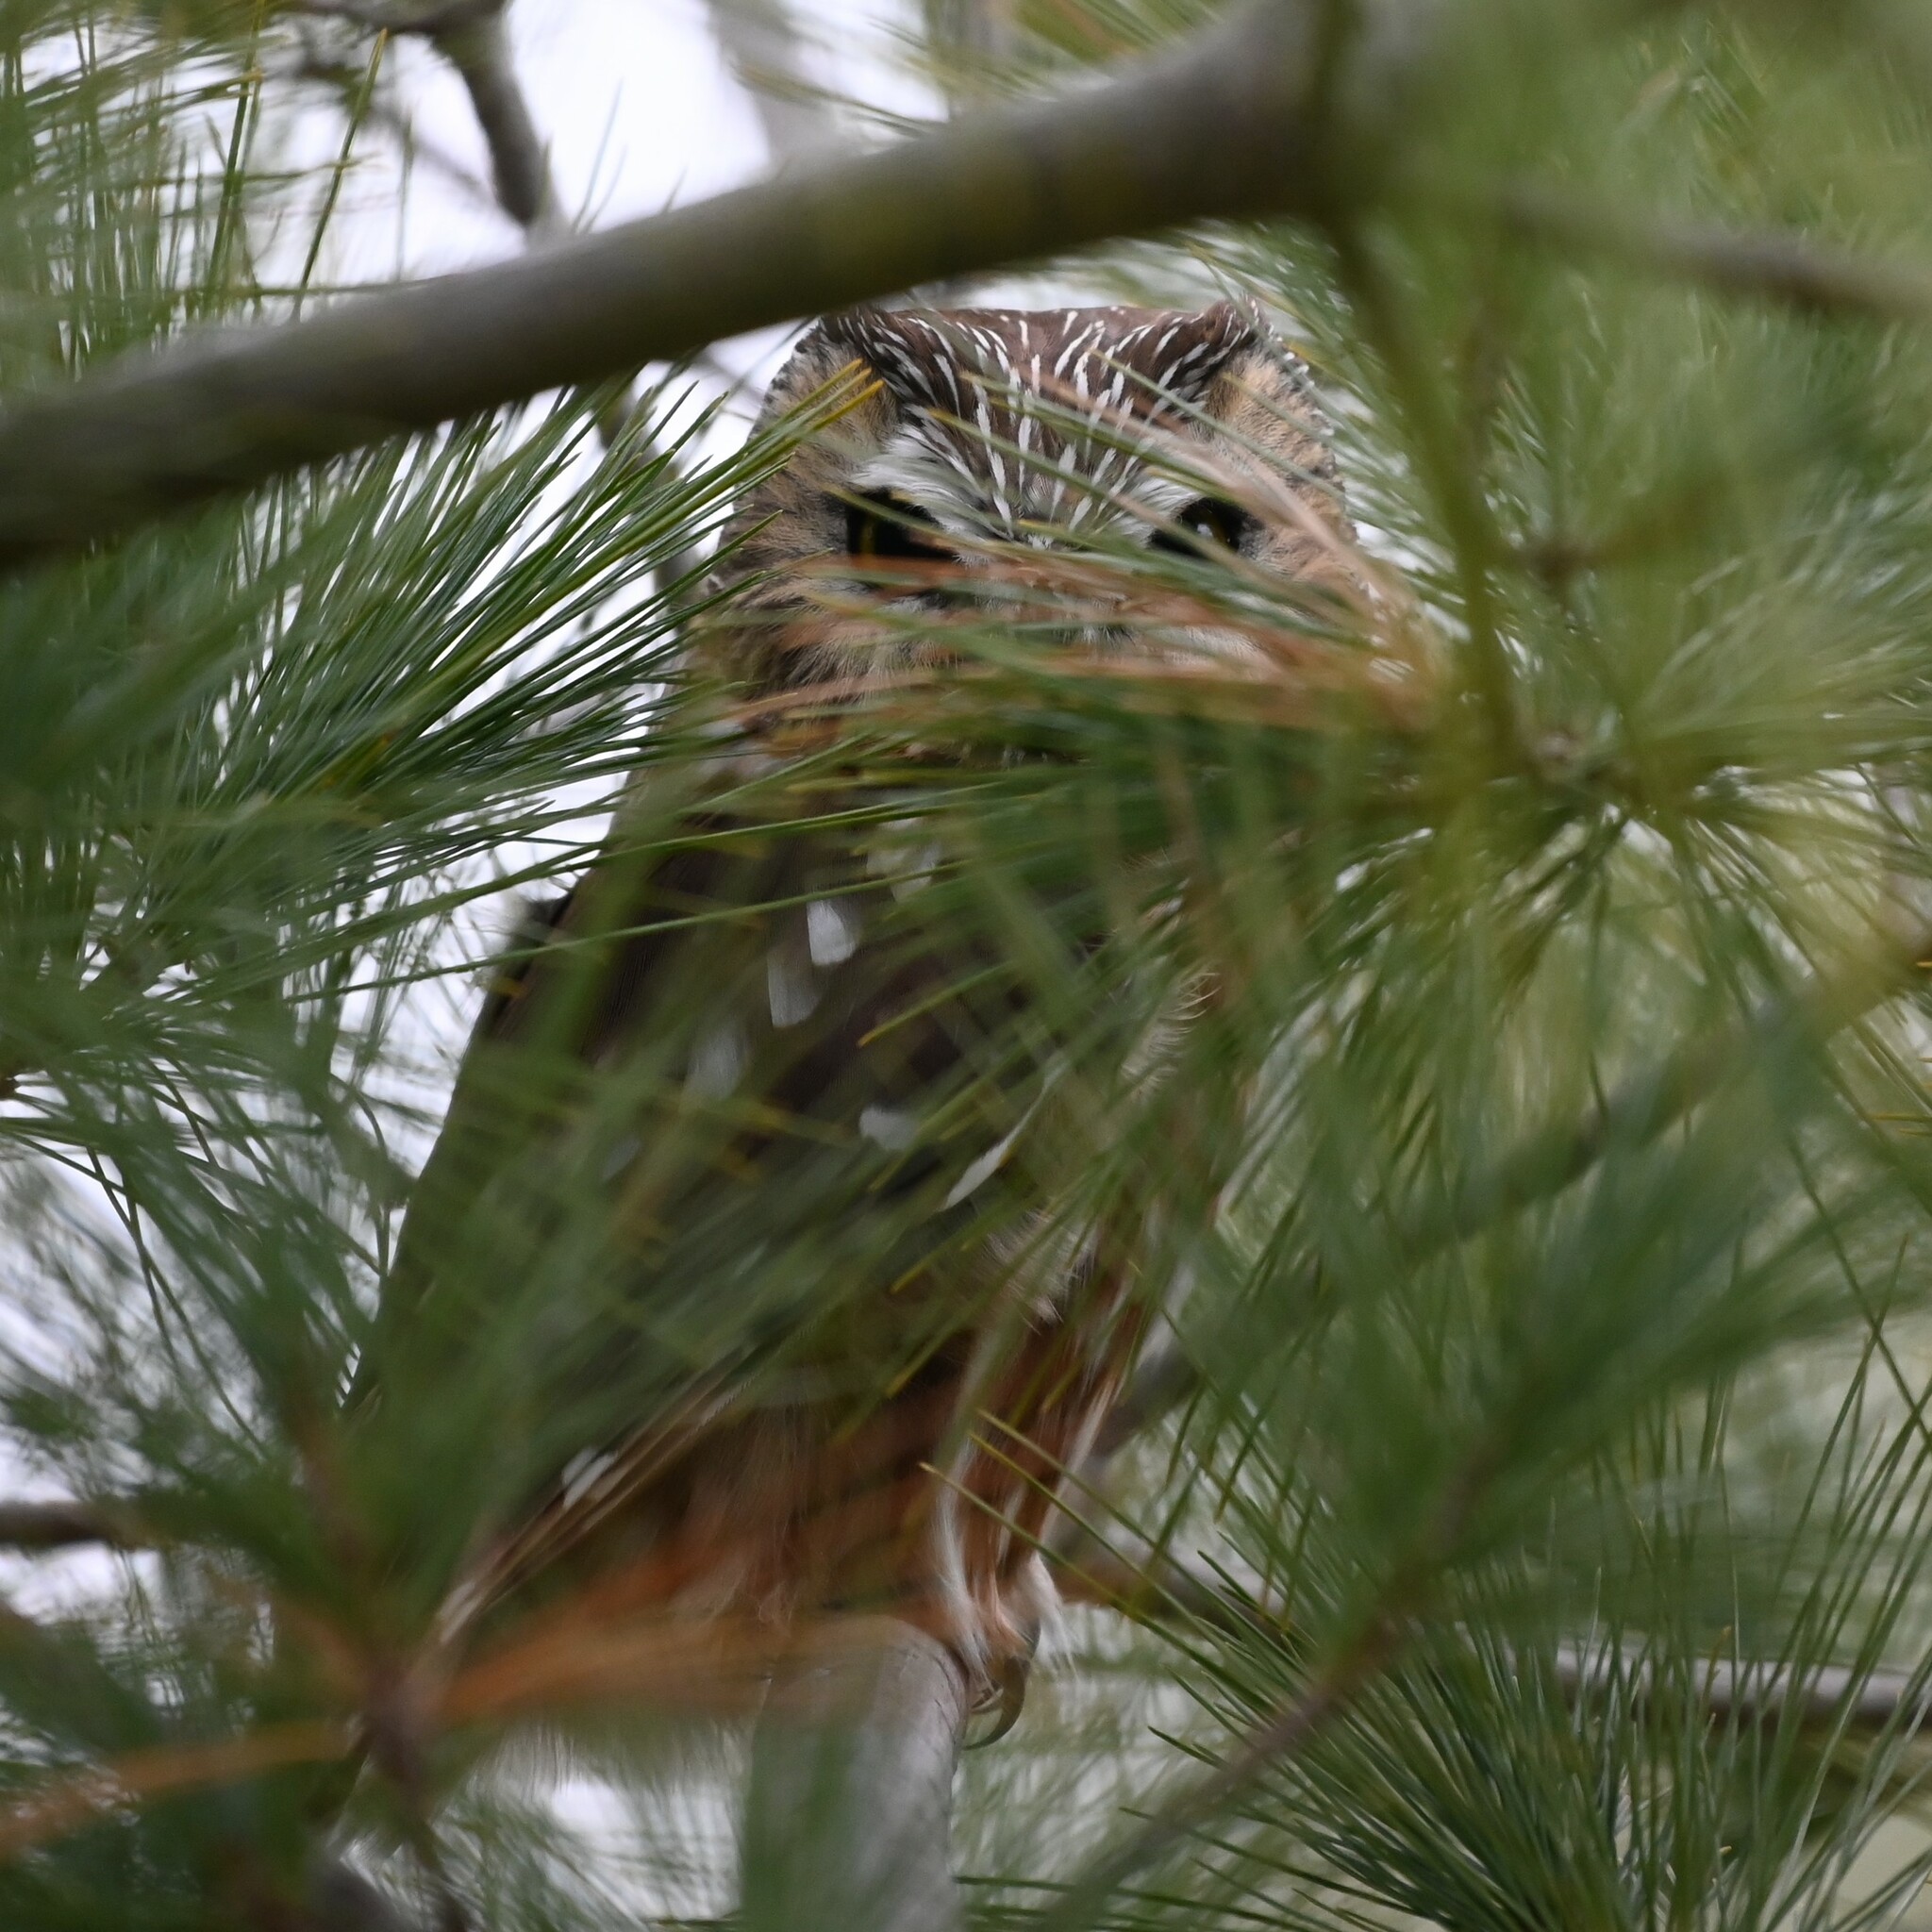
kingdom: Animalia
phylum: Chordata
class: Aves
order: Strigiformes
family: Strigidae
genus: Aegolius
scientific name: Aegolius acadicus
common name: Northern saw-whet owl
